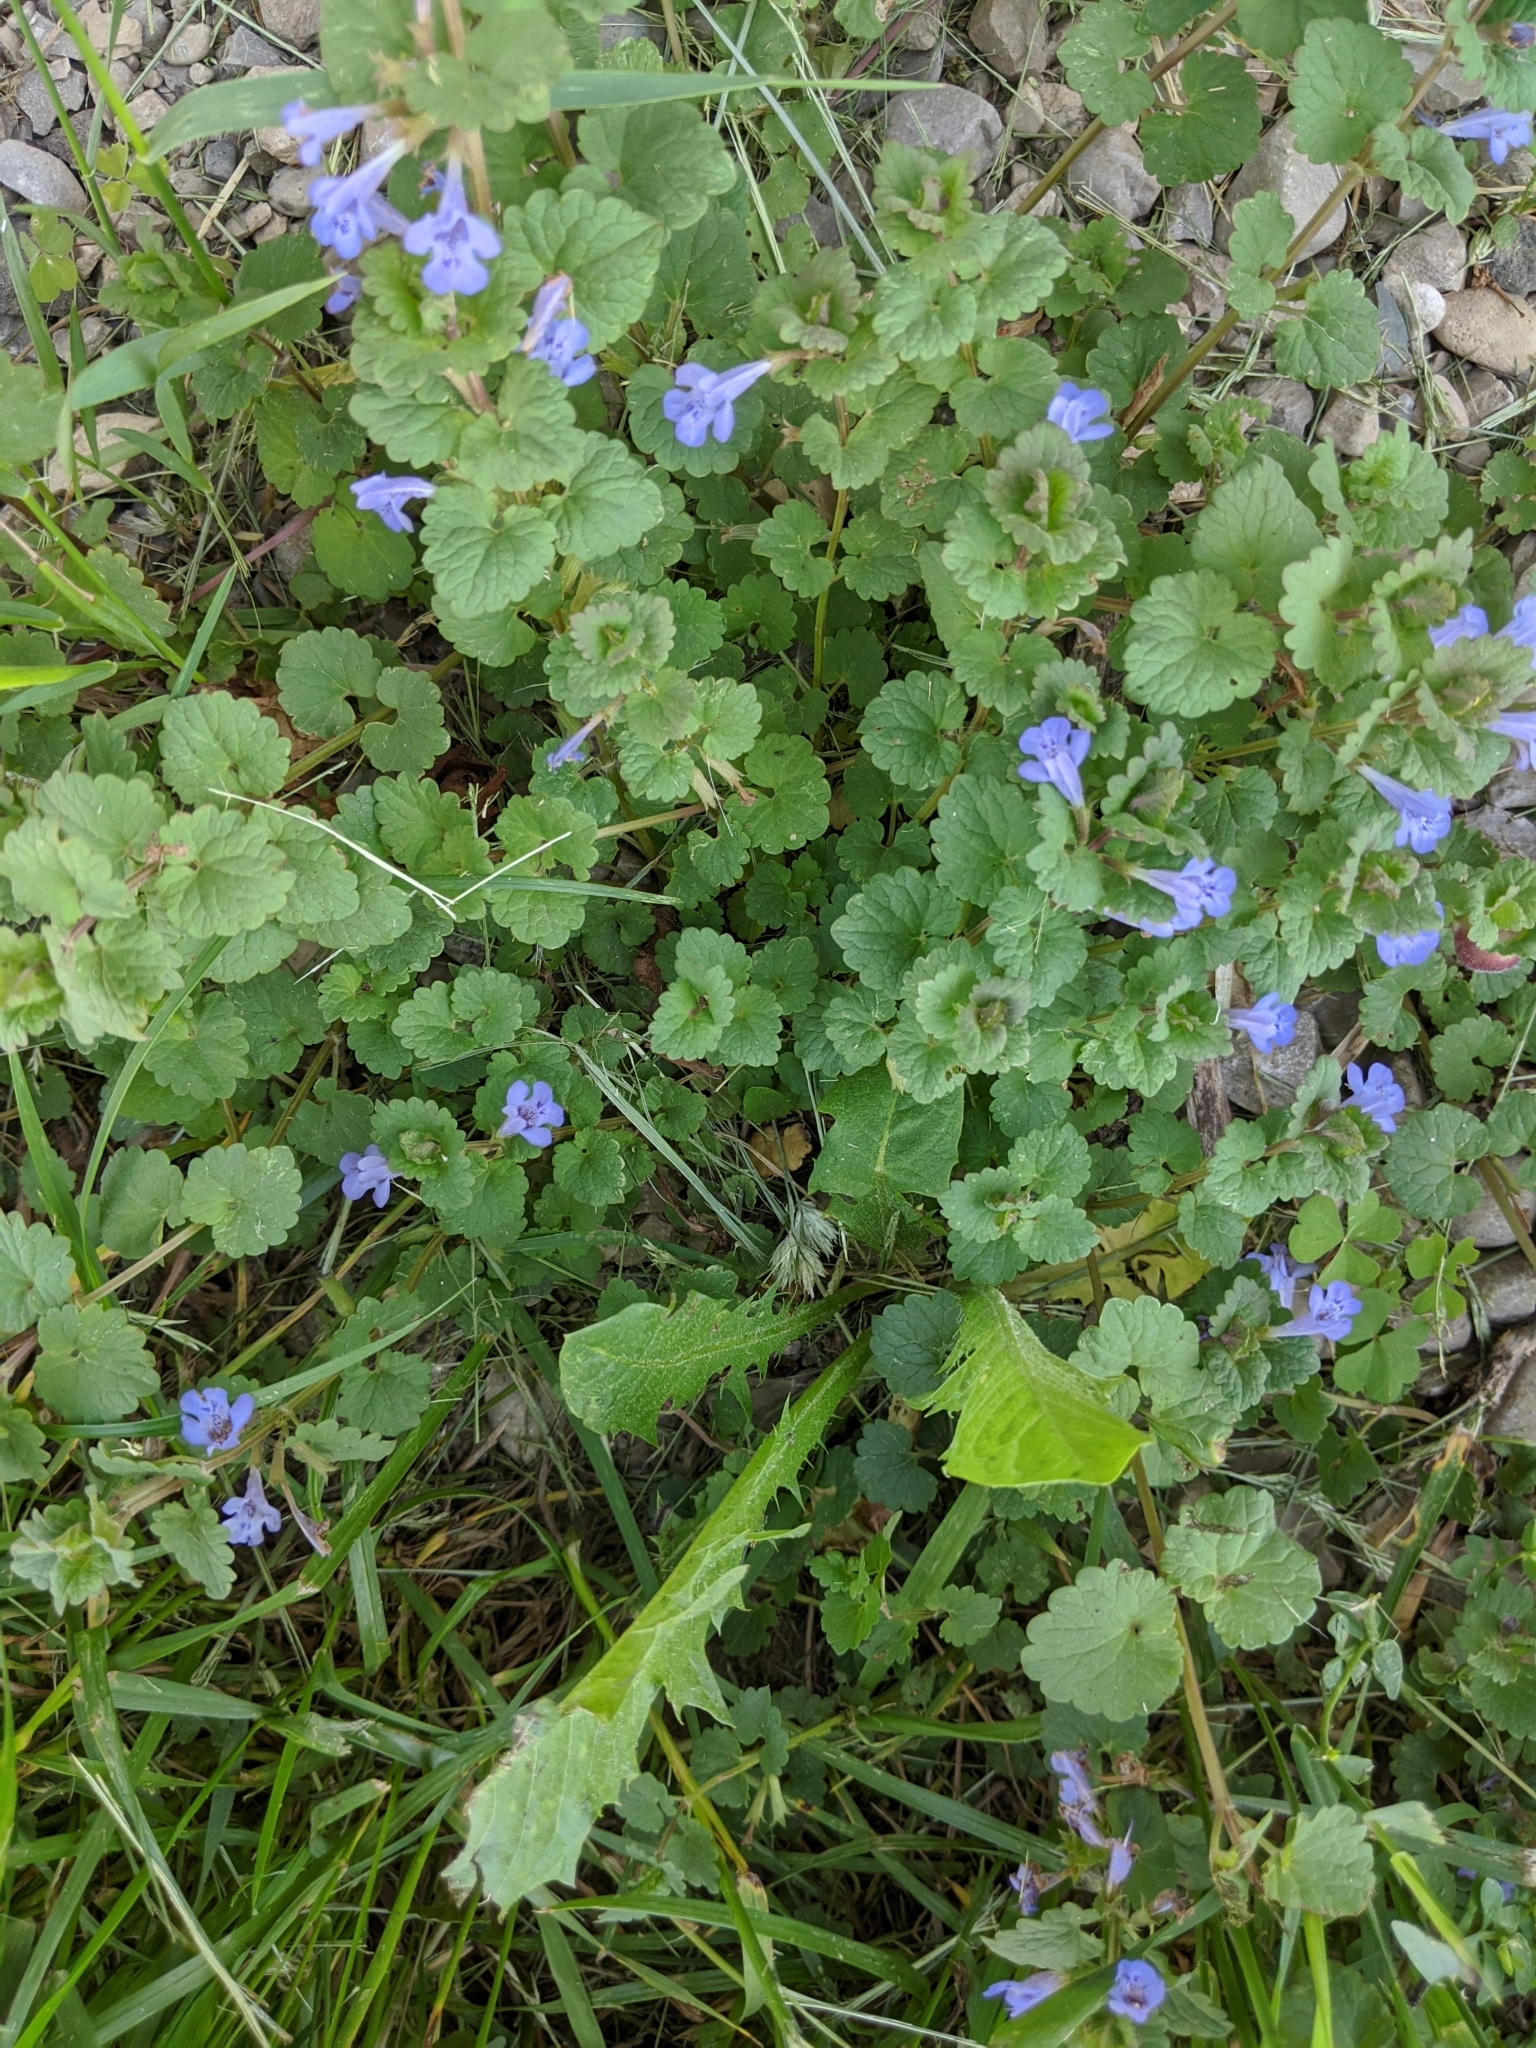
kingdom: Plantae
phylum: Tracheophyta
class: Magnoliopsida
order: Lamiales
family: Lamiaceae
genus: Glechoma
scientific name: Glechoma hederacea
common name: Ground ivy
